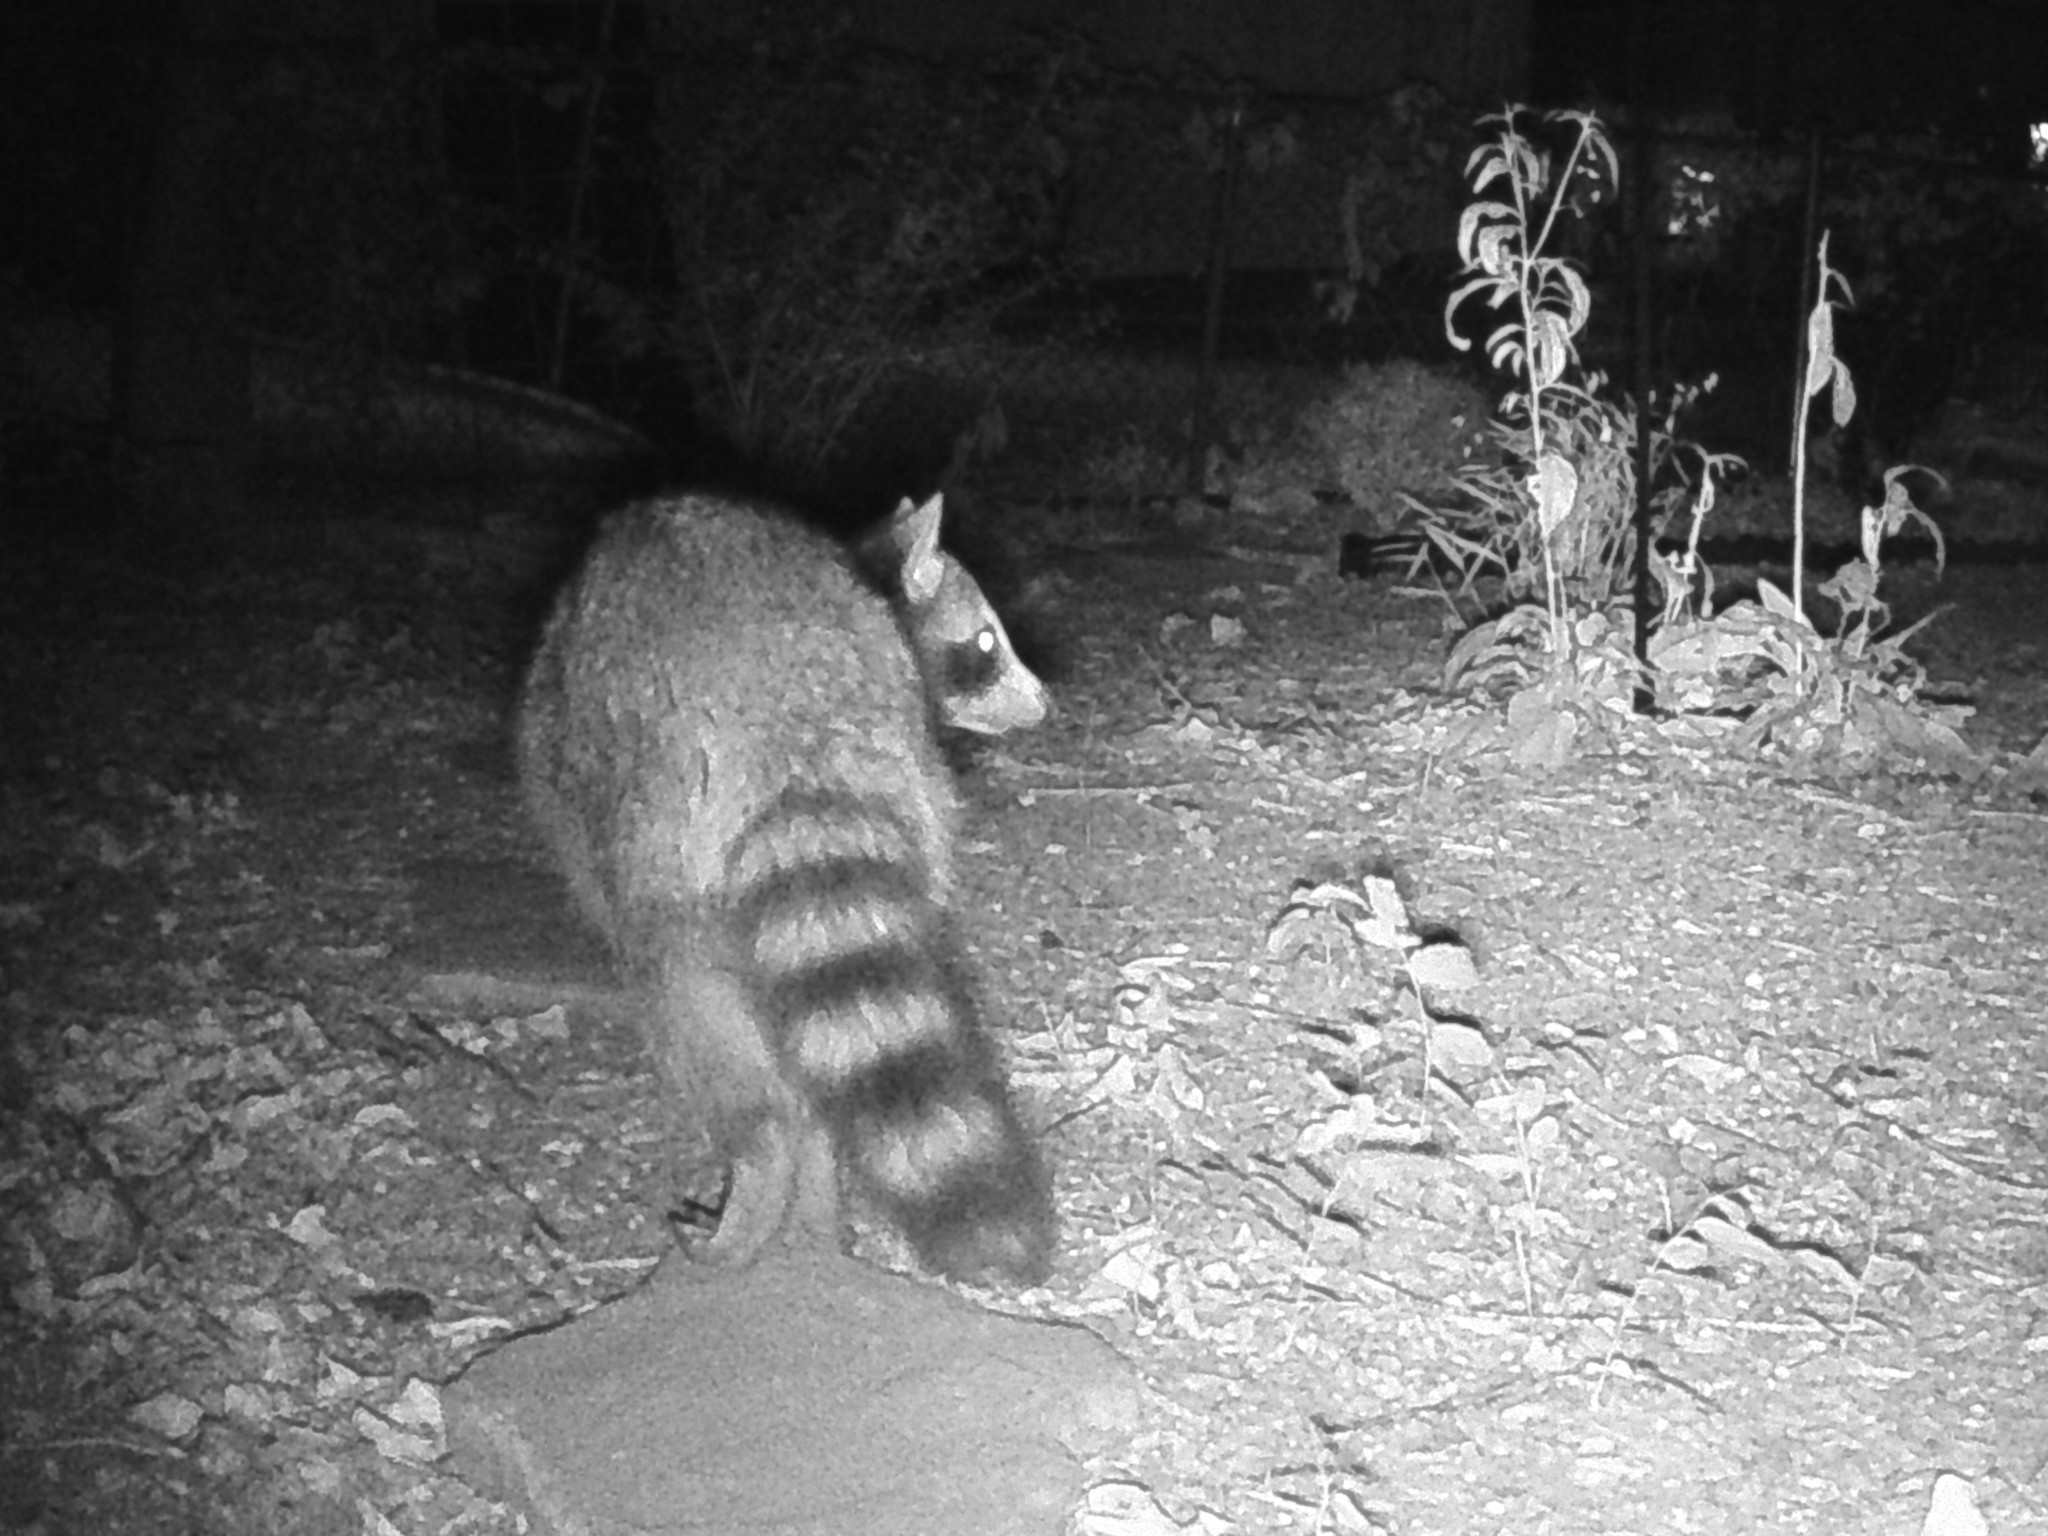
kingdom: Animalia
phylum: Chordata
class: Mammalia
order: Carnivora
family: Procyonidae
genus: Procyon
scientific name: Procyon lotor
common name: Raccoon
